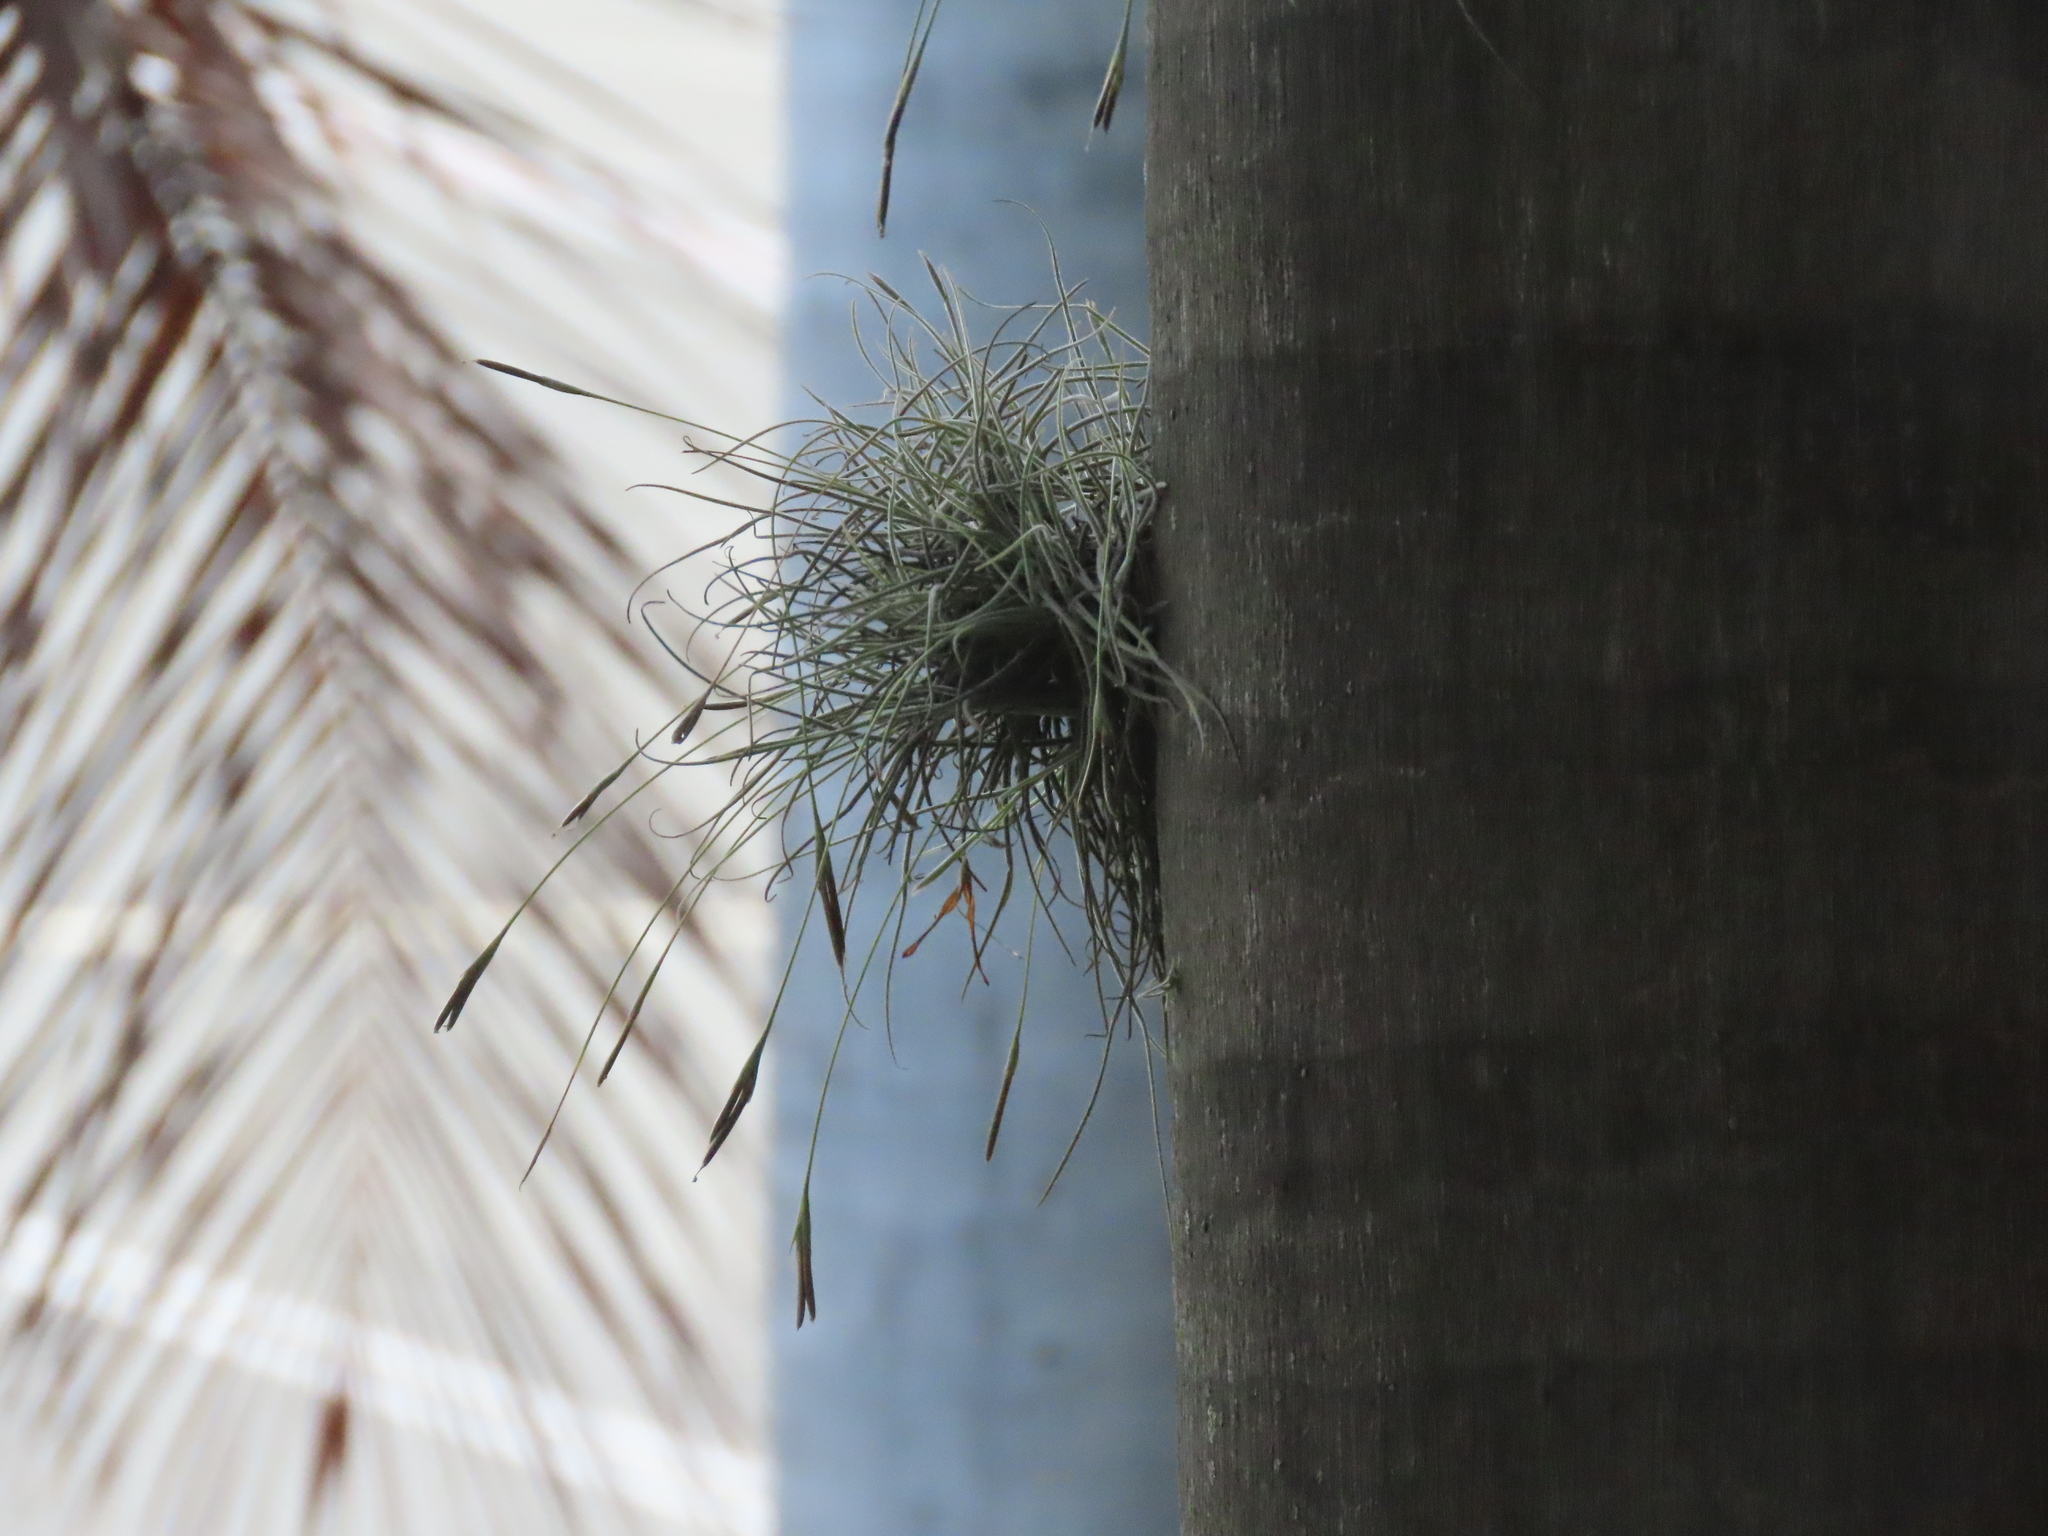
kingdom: Plantae
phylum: Tracheophyta
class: Liliopsida
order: Poales
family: Bromeliaceae
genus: Tillandsia
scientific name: Tillandsia recurvata
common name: Small ballmoss
